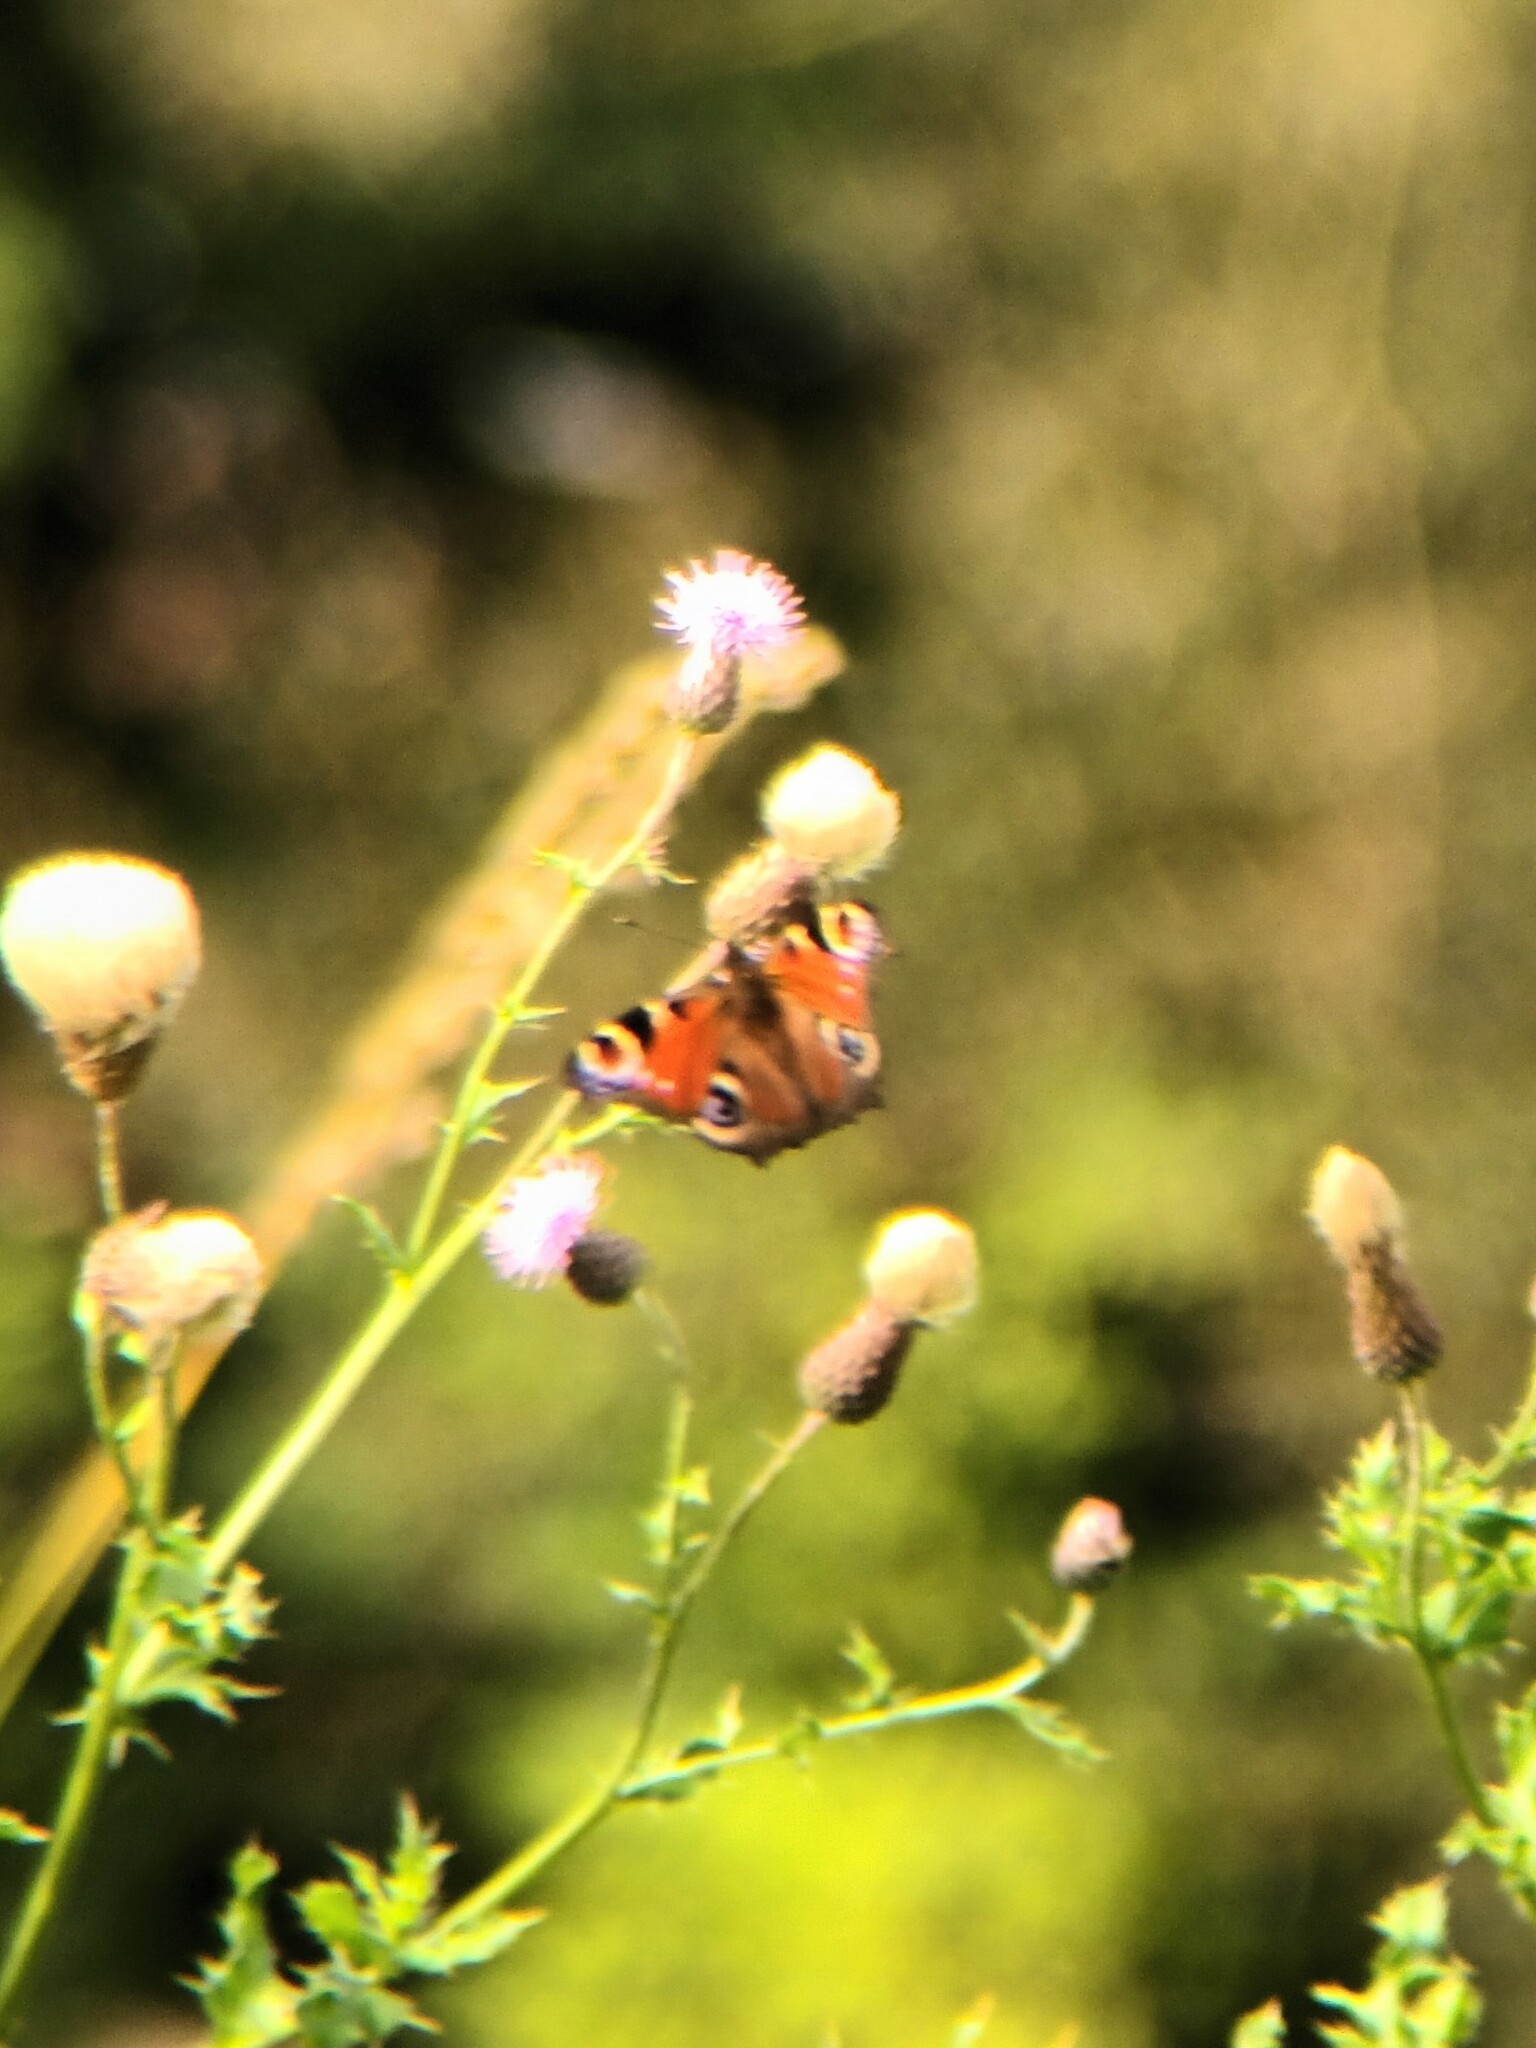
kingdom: Animalia
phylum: Arthropoda
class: Insecta
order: Lepidoptera
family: Nymphalidae
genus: Aglais
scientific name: Aglais io
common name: Peacock
